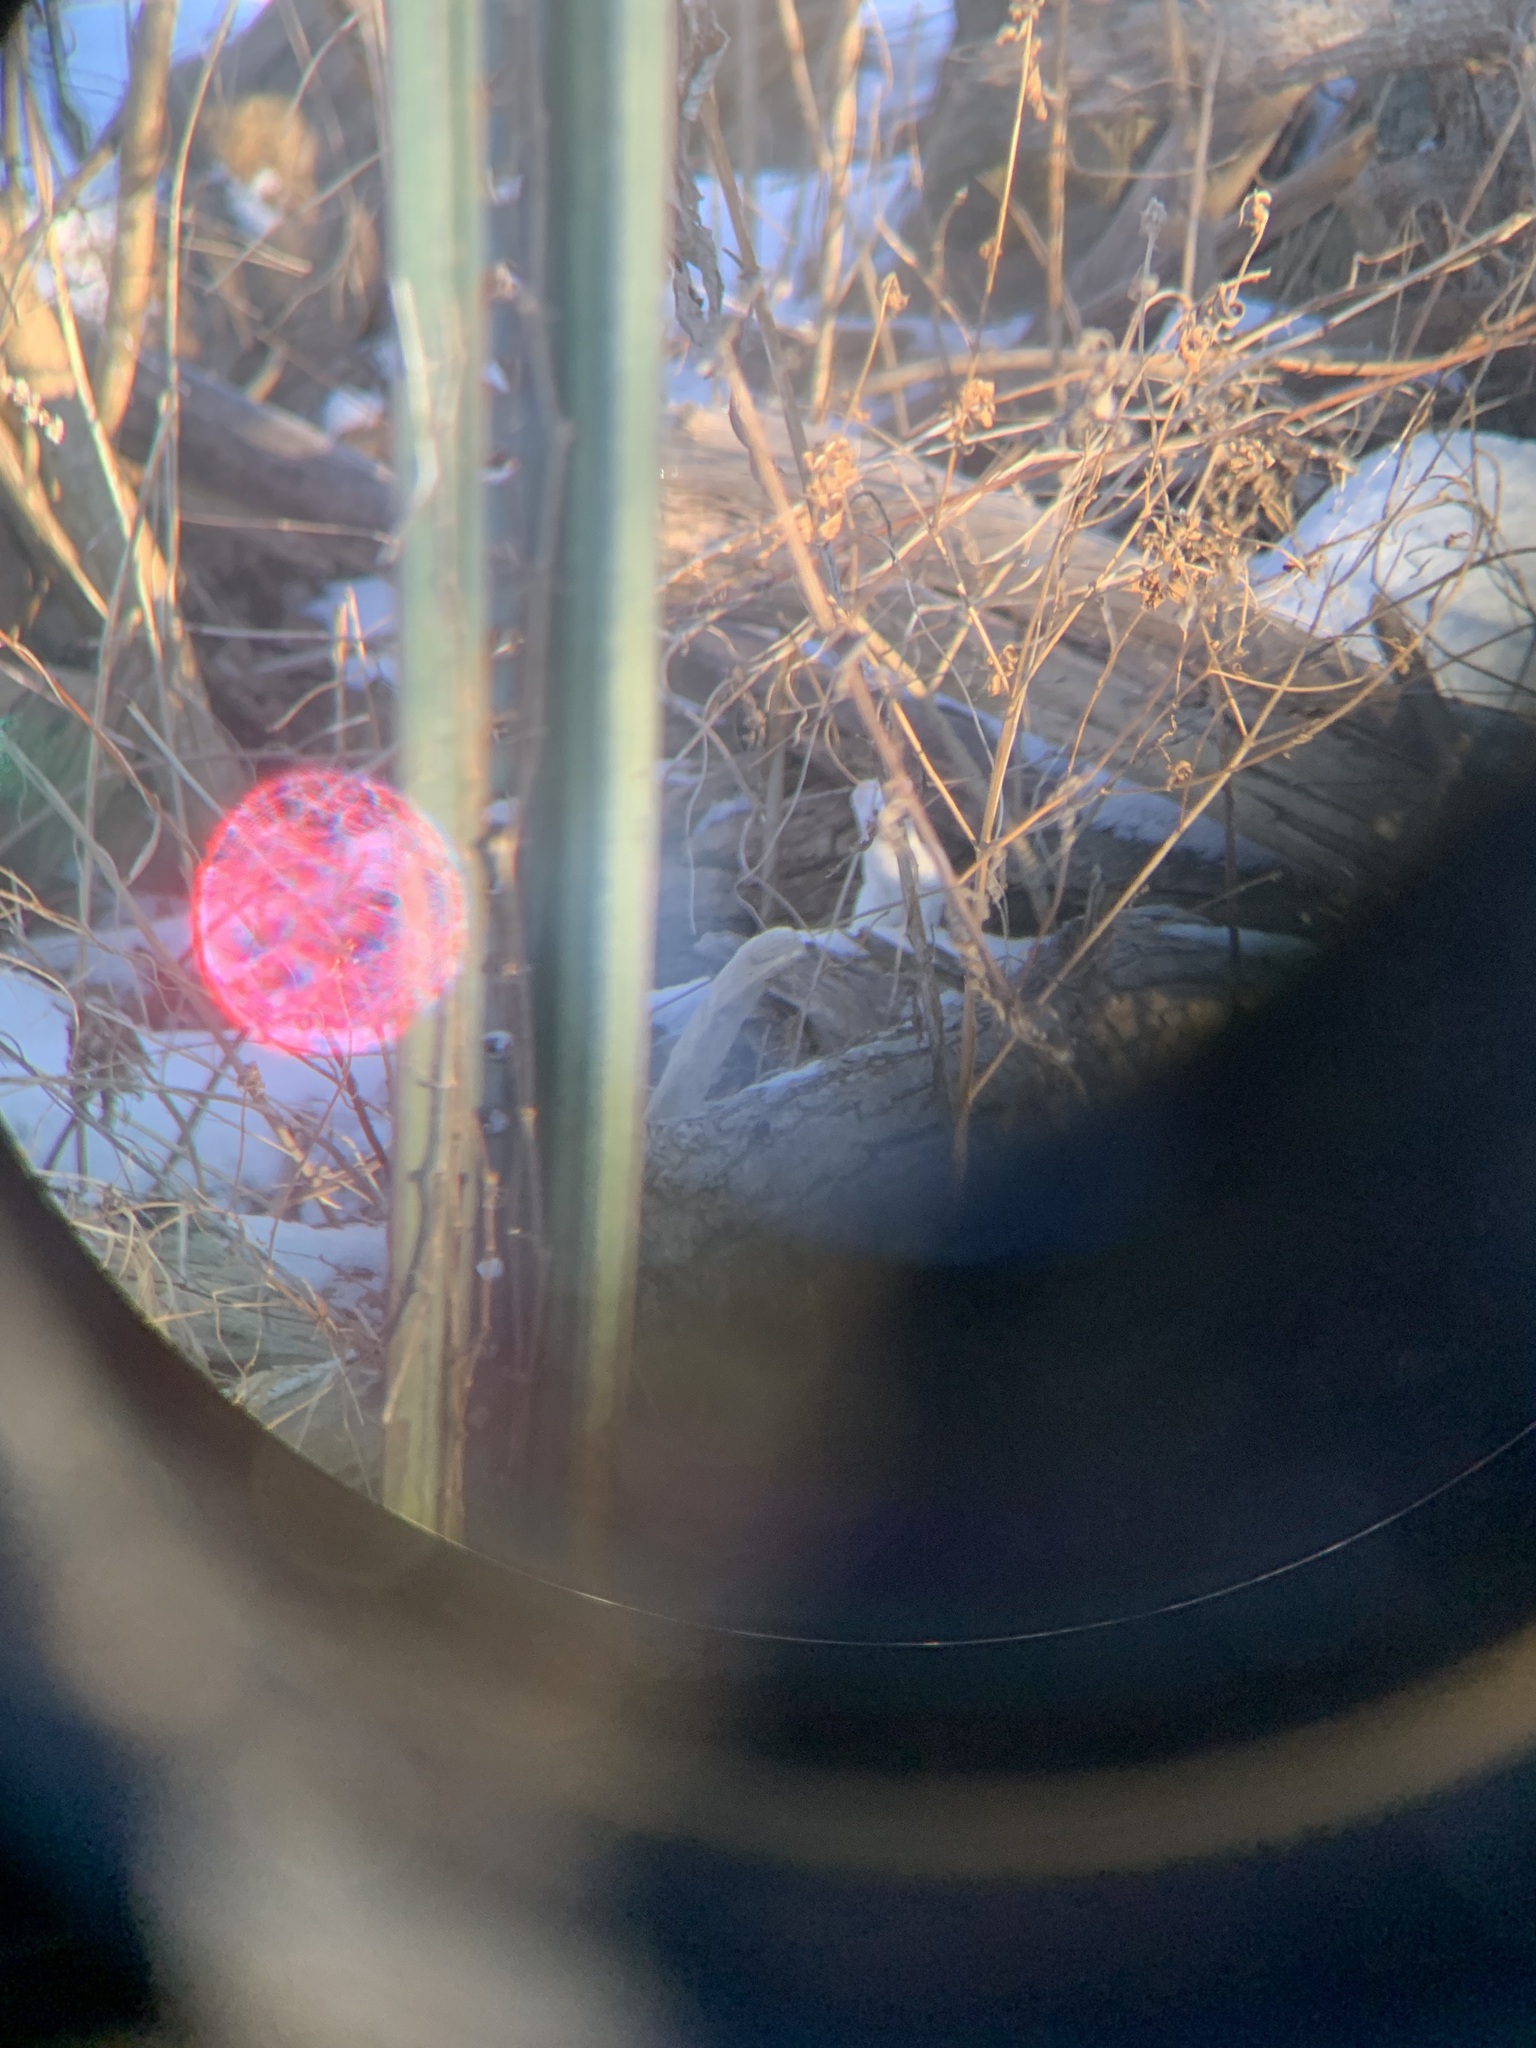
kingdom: Animalia
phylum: Chordata
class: Mammalia
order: Carnivora
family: Mustelidae
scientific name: Mustelidae
